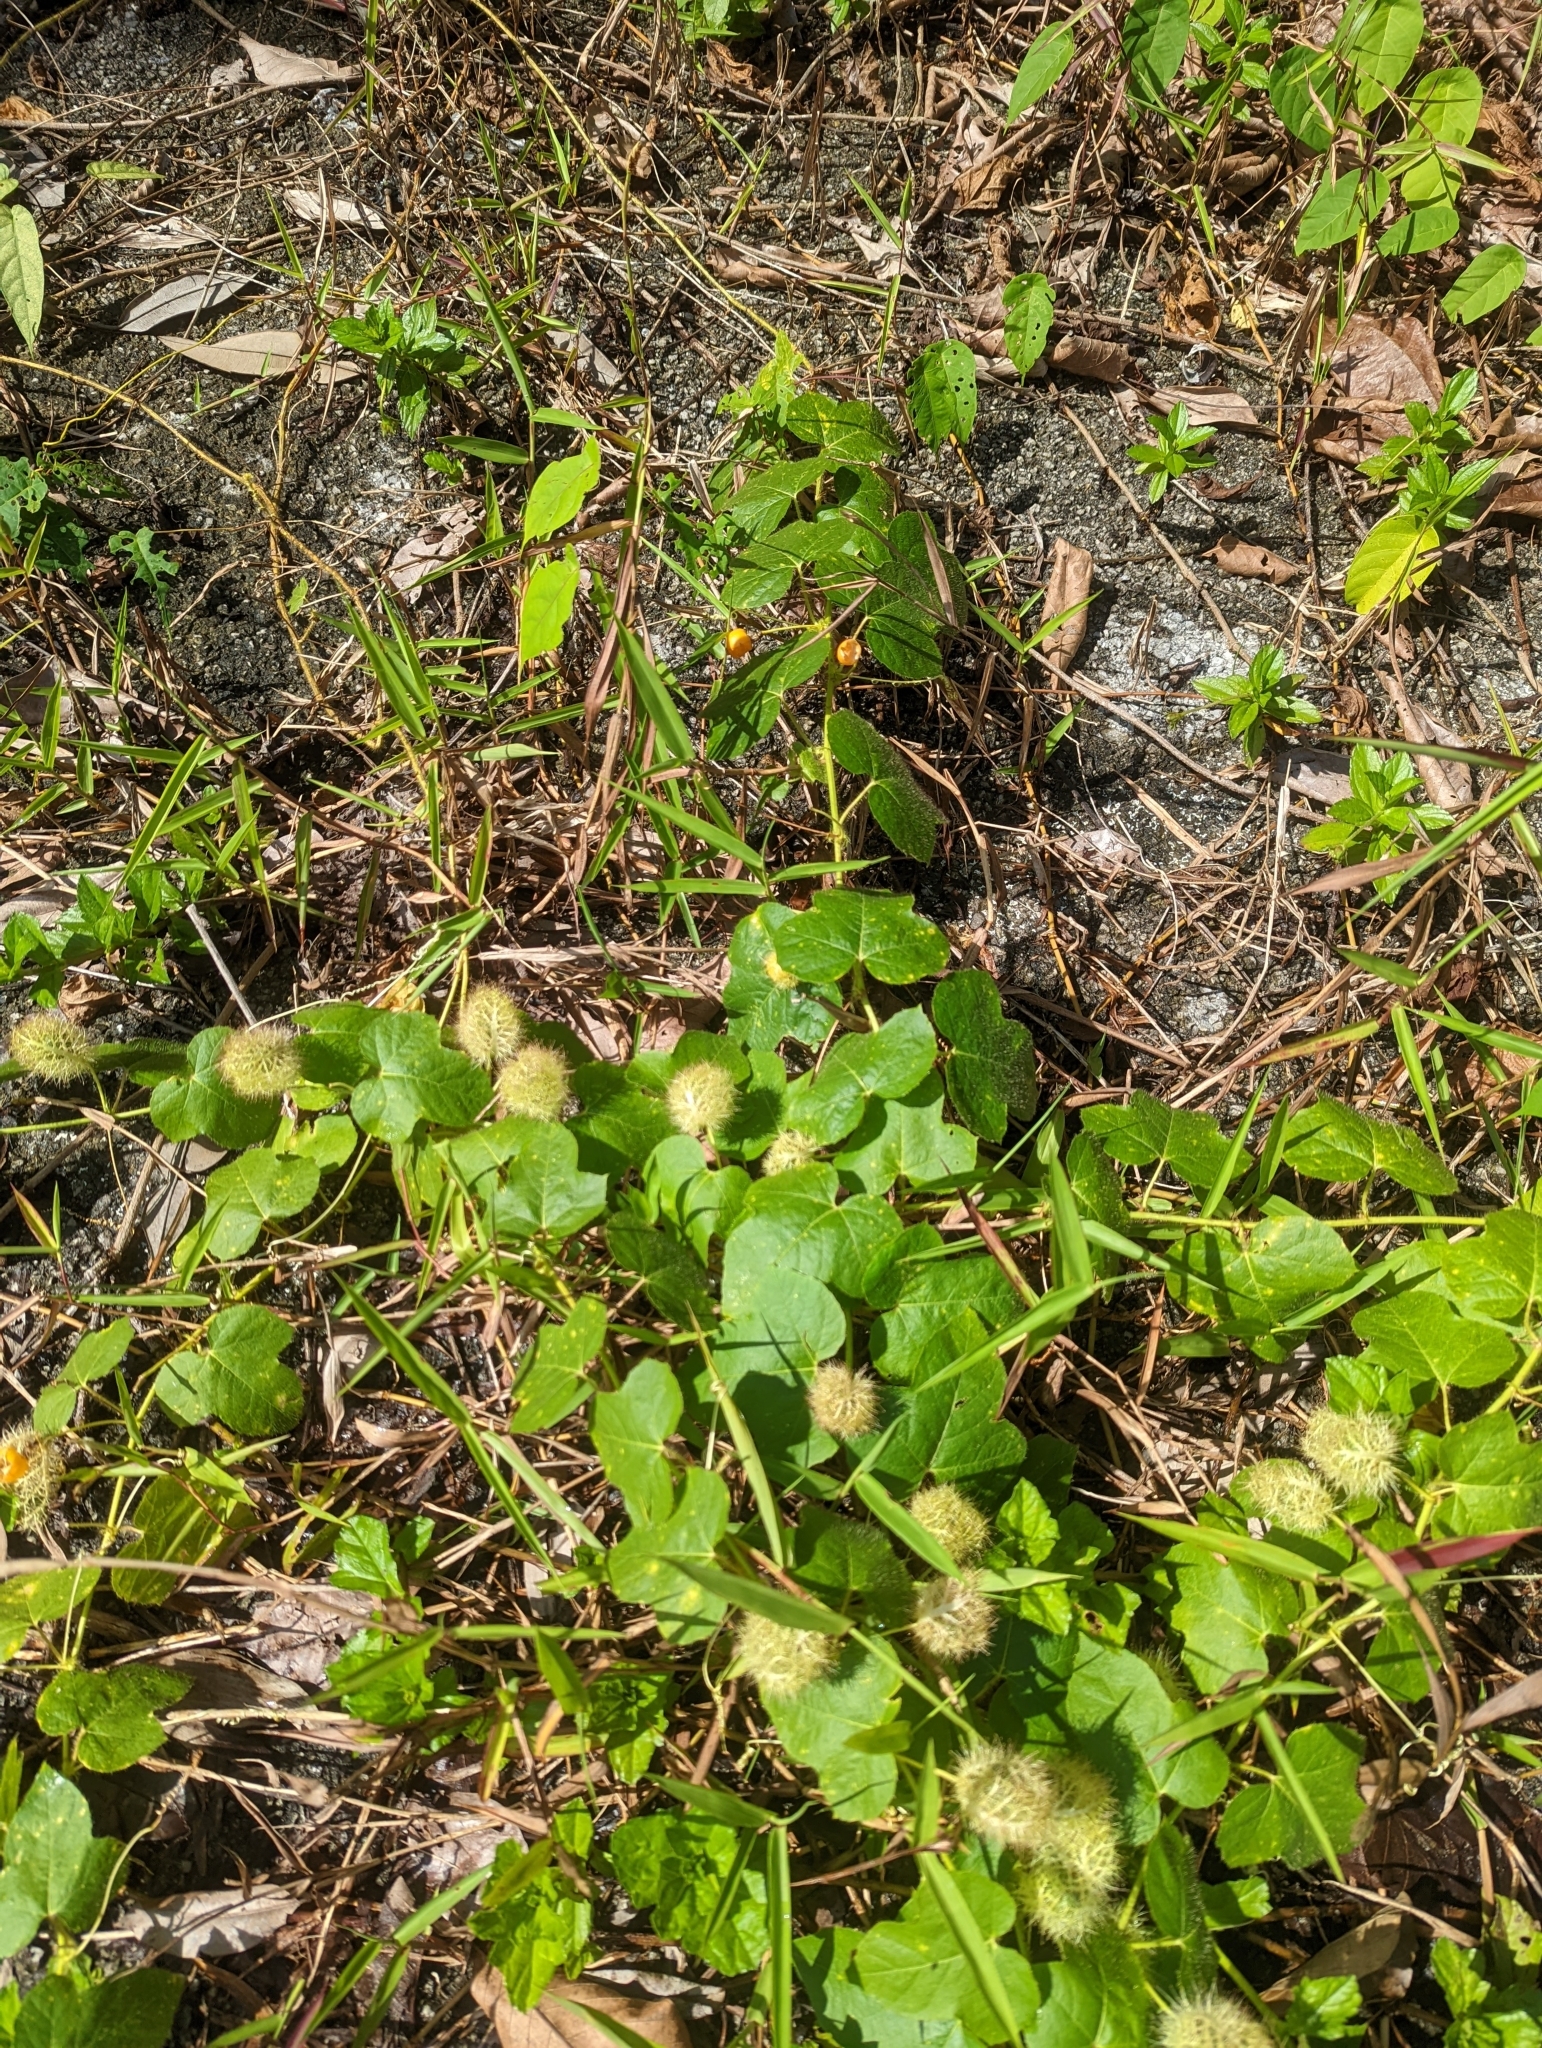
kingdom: Plantae
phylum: Tracheophyta
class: Magnoliopsida
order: Malpighiales
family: Passifloraceae
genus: Passiflora
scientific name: Passiflora foetida
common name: Fetid passionflower
